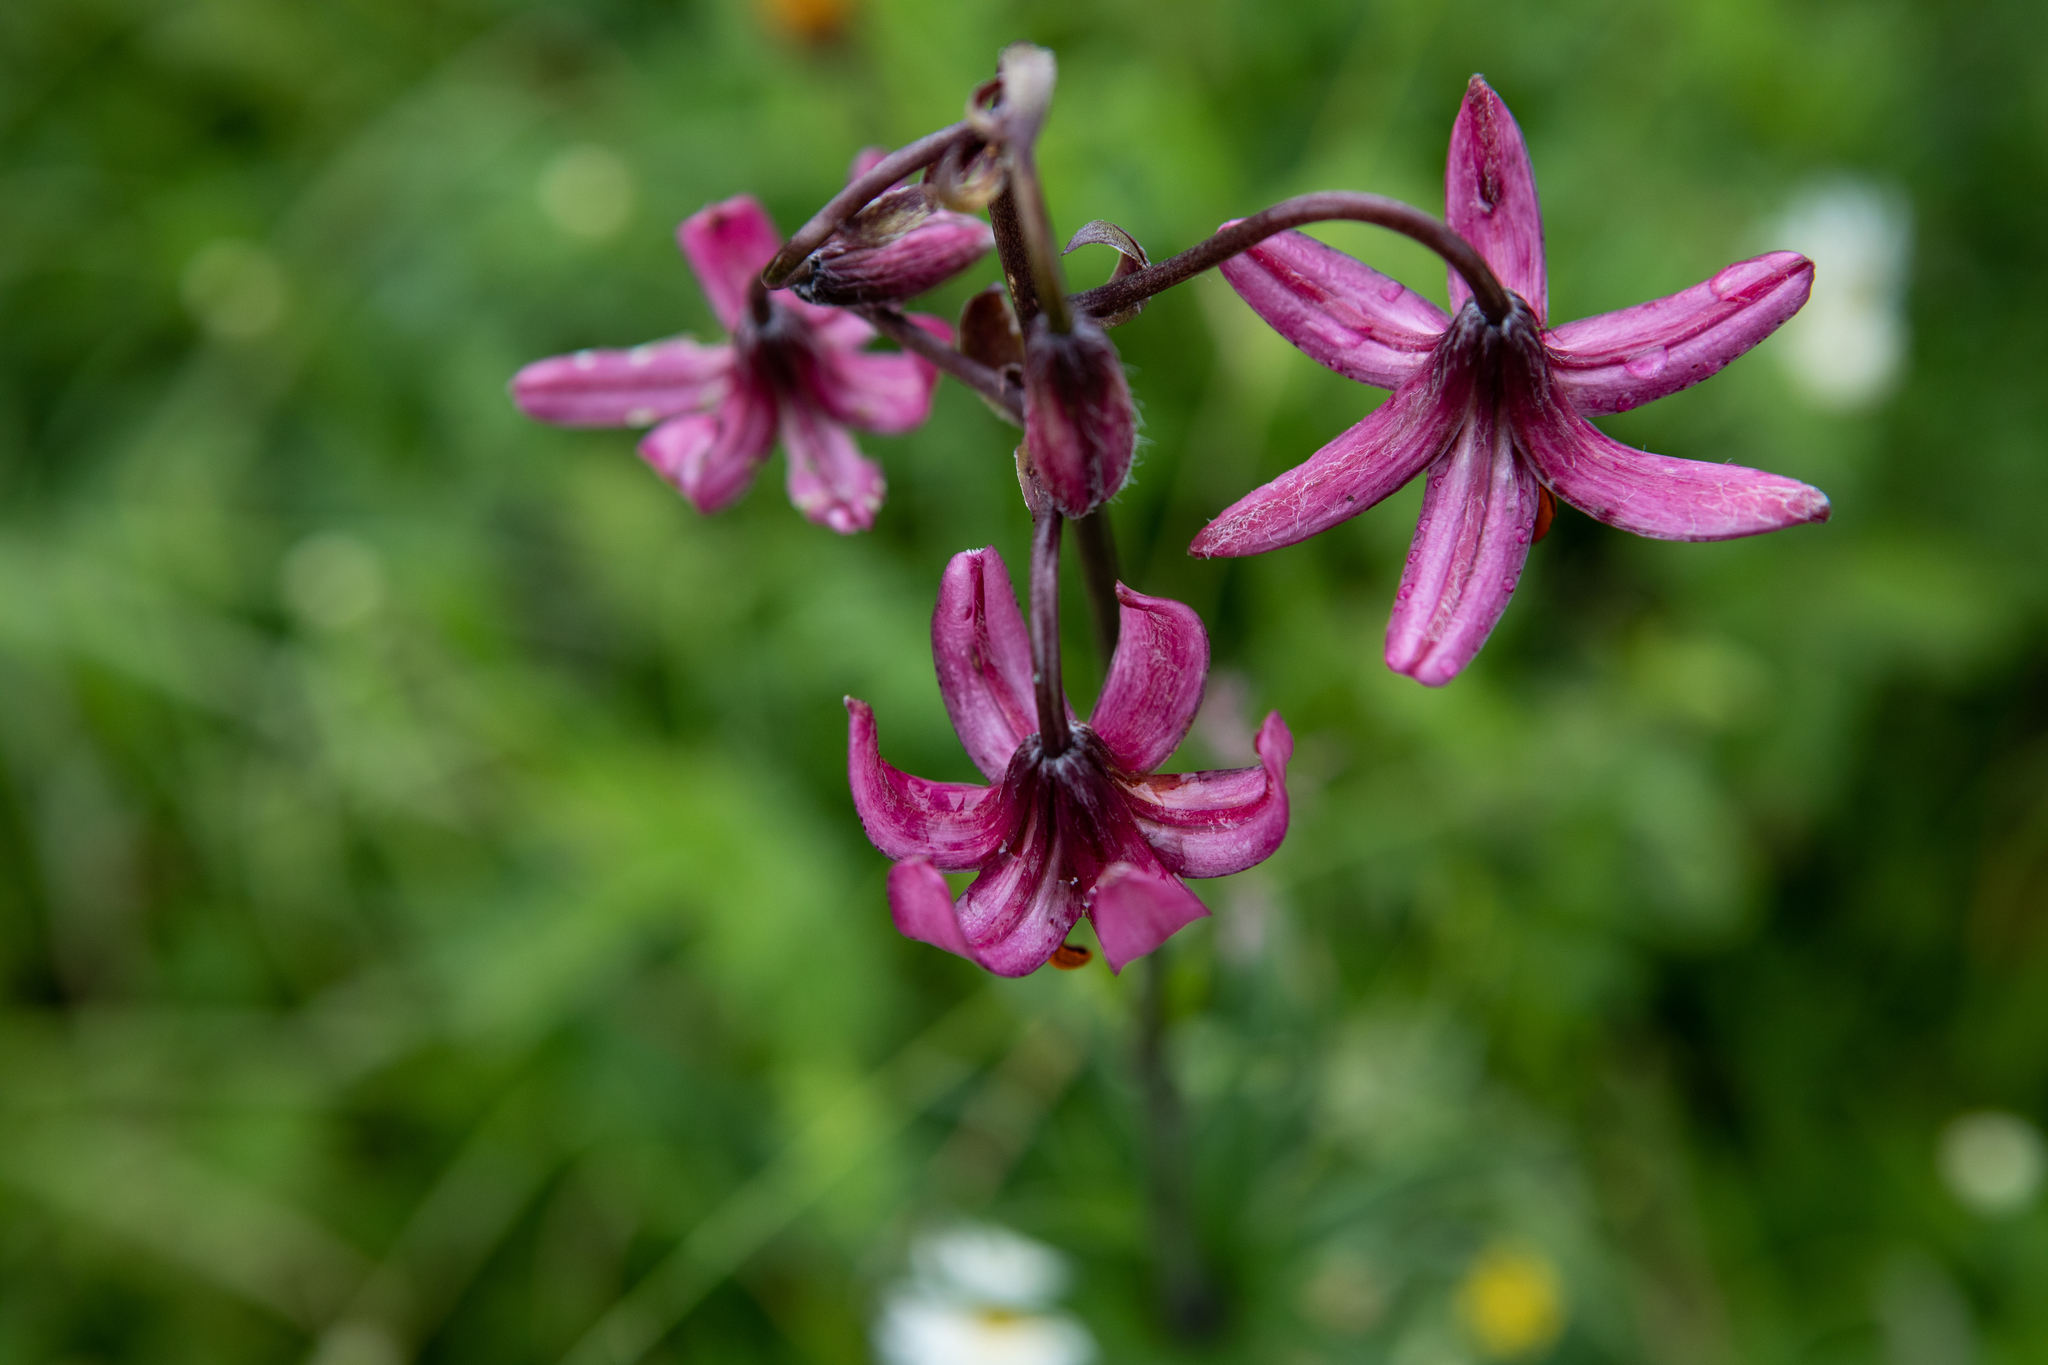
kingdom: Plantae
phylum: Tracheophyta
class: Liliopsida
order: Liliales
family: Liliaceae
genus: Lilium
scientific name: Lilium martagon
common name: Martagon lily
